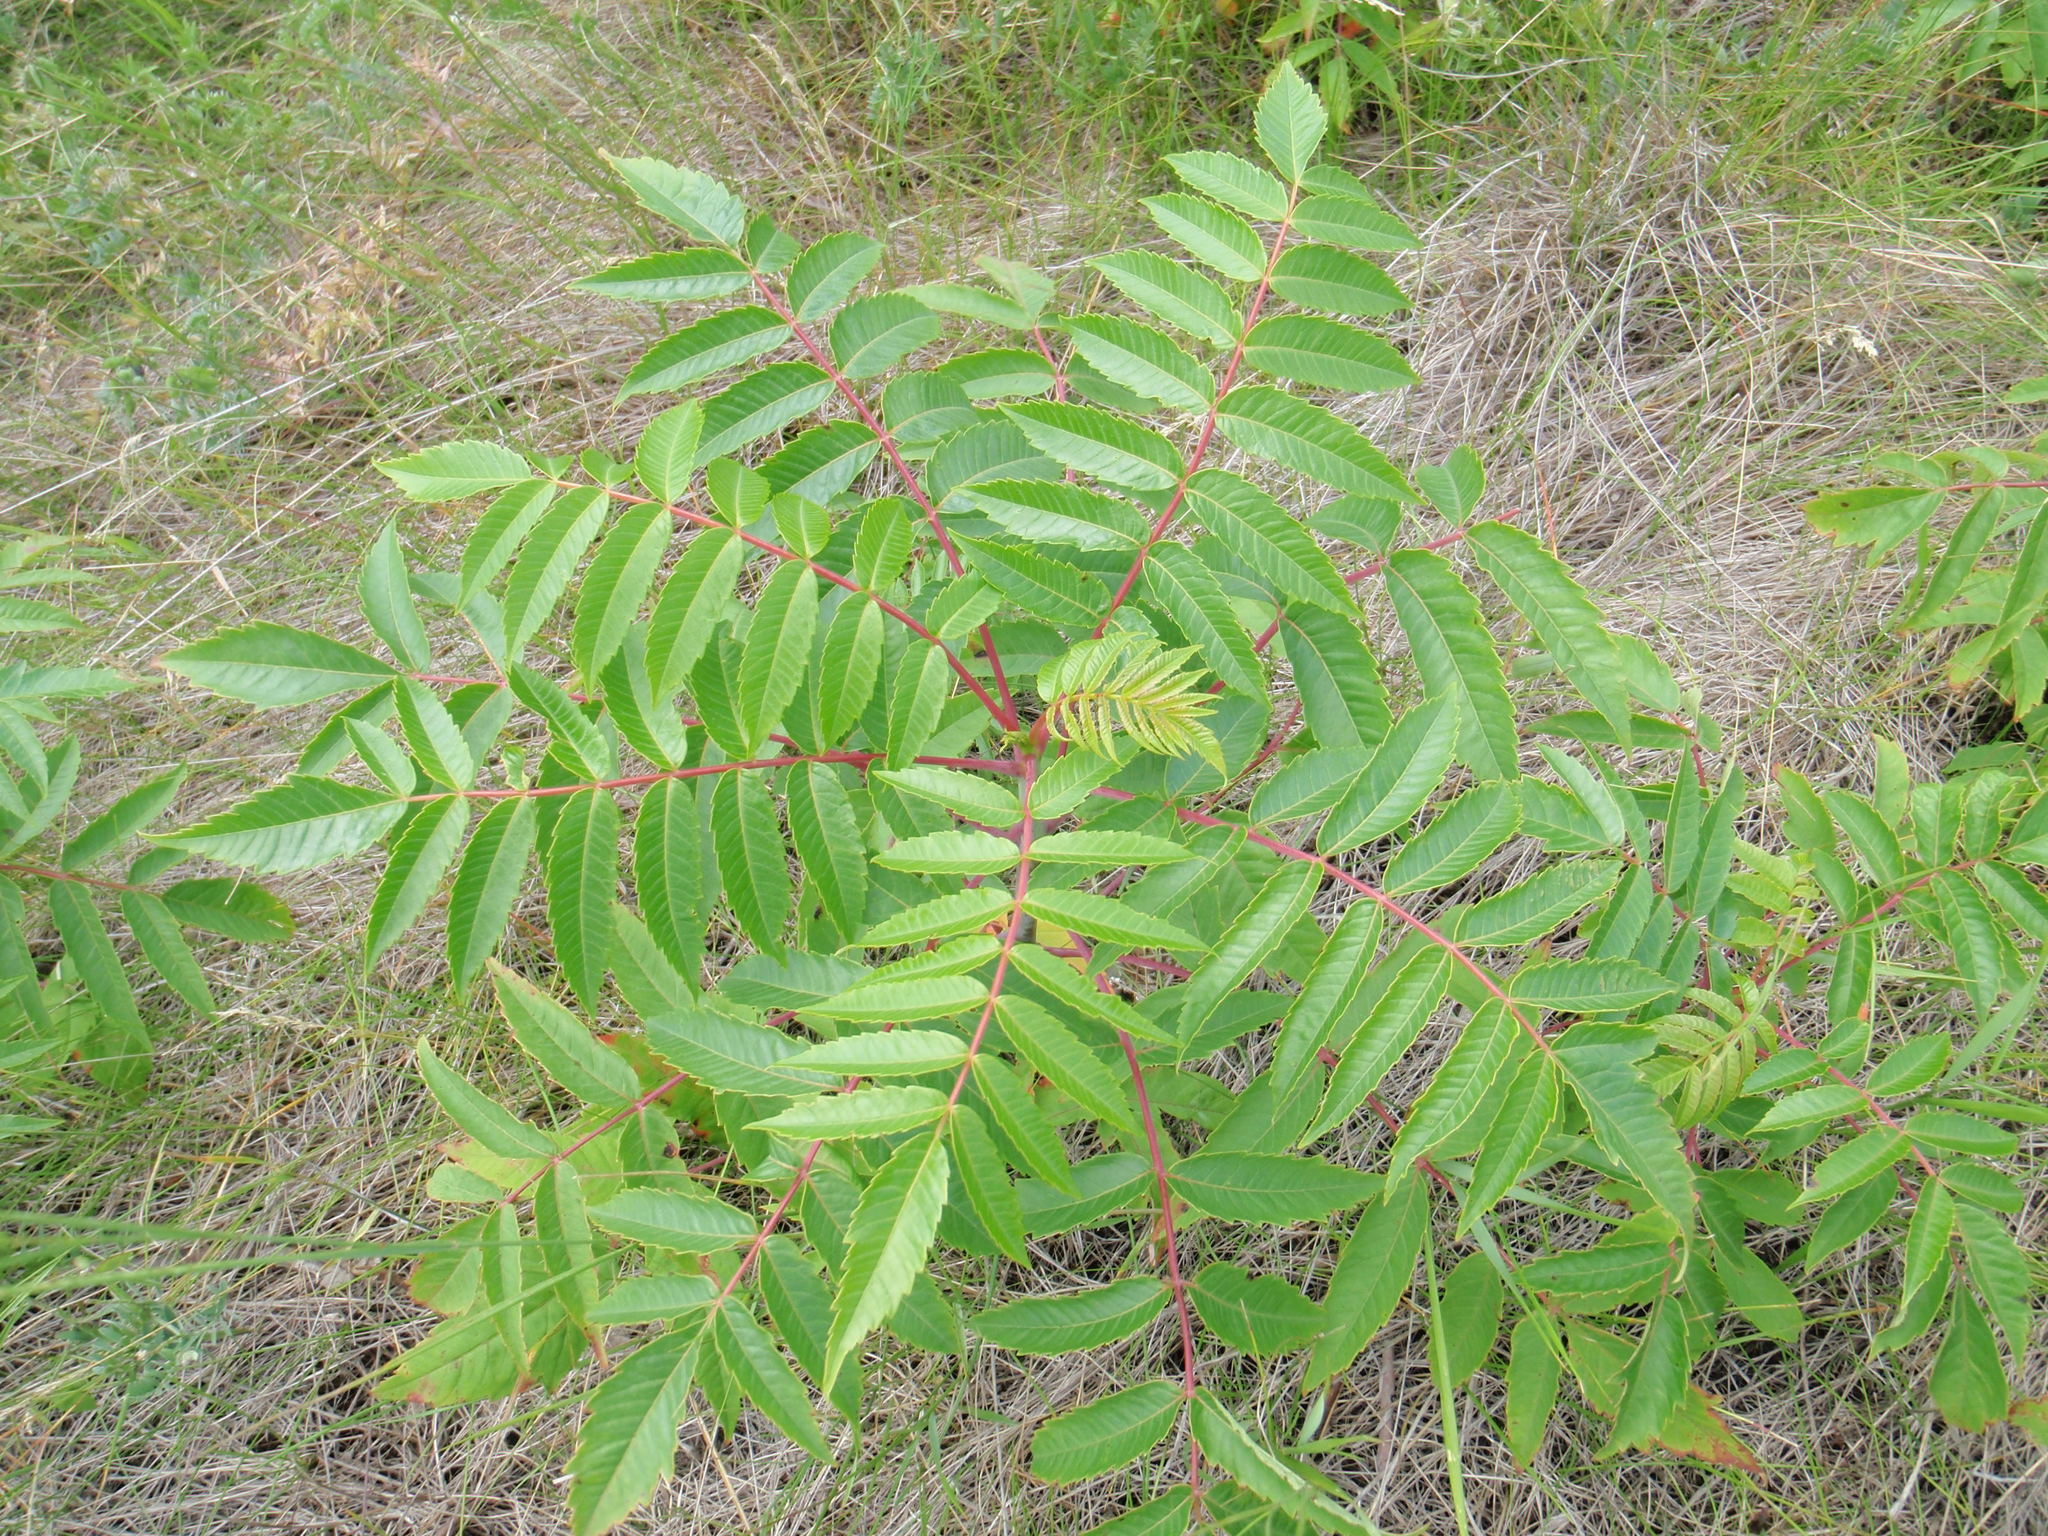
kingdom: Plantae
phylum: Tracheophyta
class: Magnoliopsida
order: Sapindales
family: Anacardiaceae
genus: Rhus
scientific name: Rhus glabra
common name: Scarlet sumac
